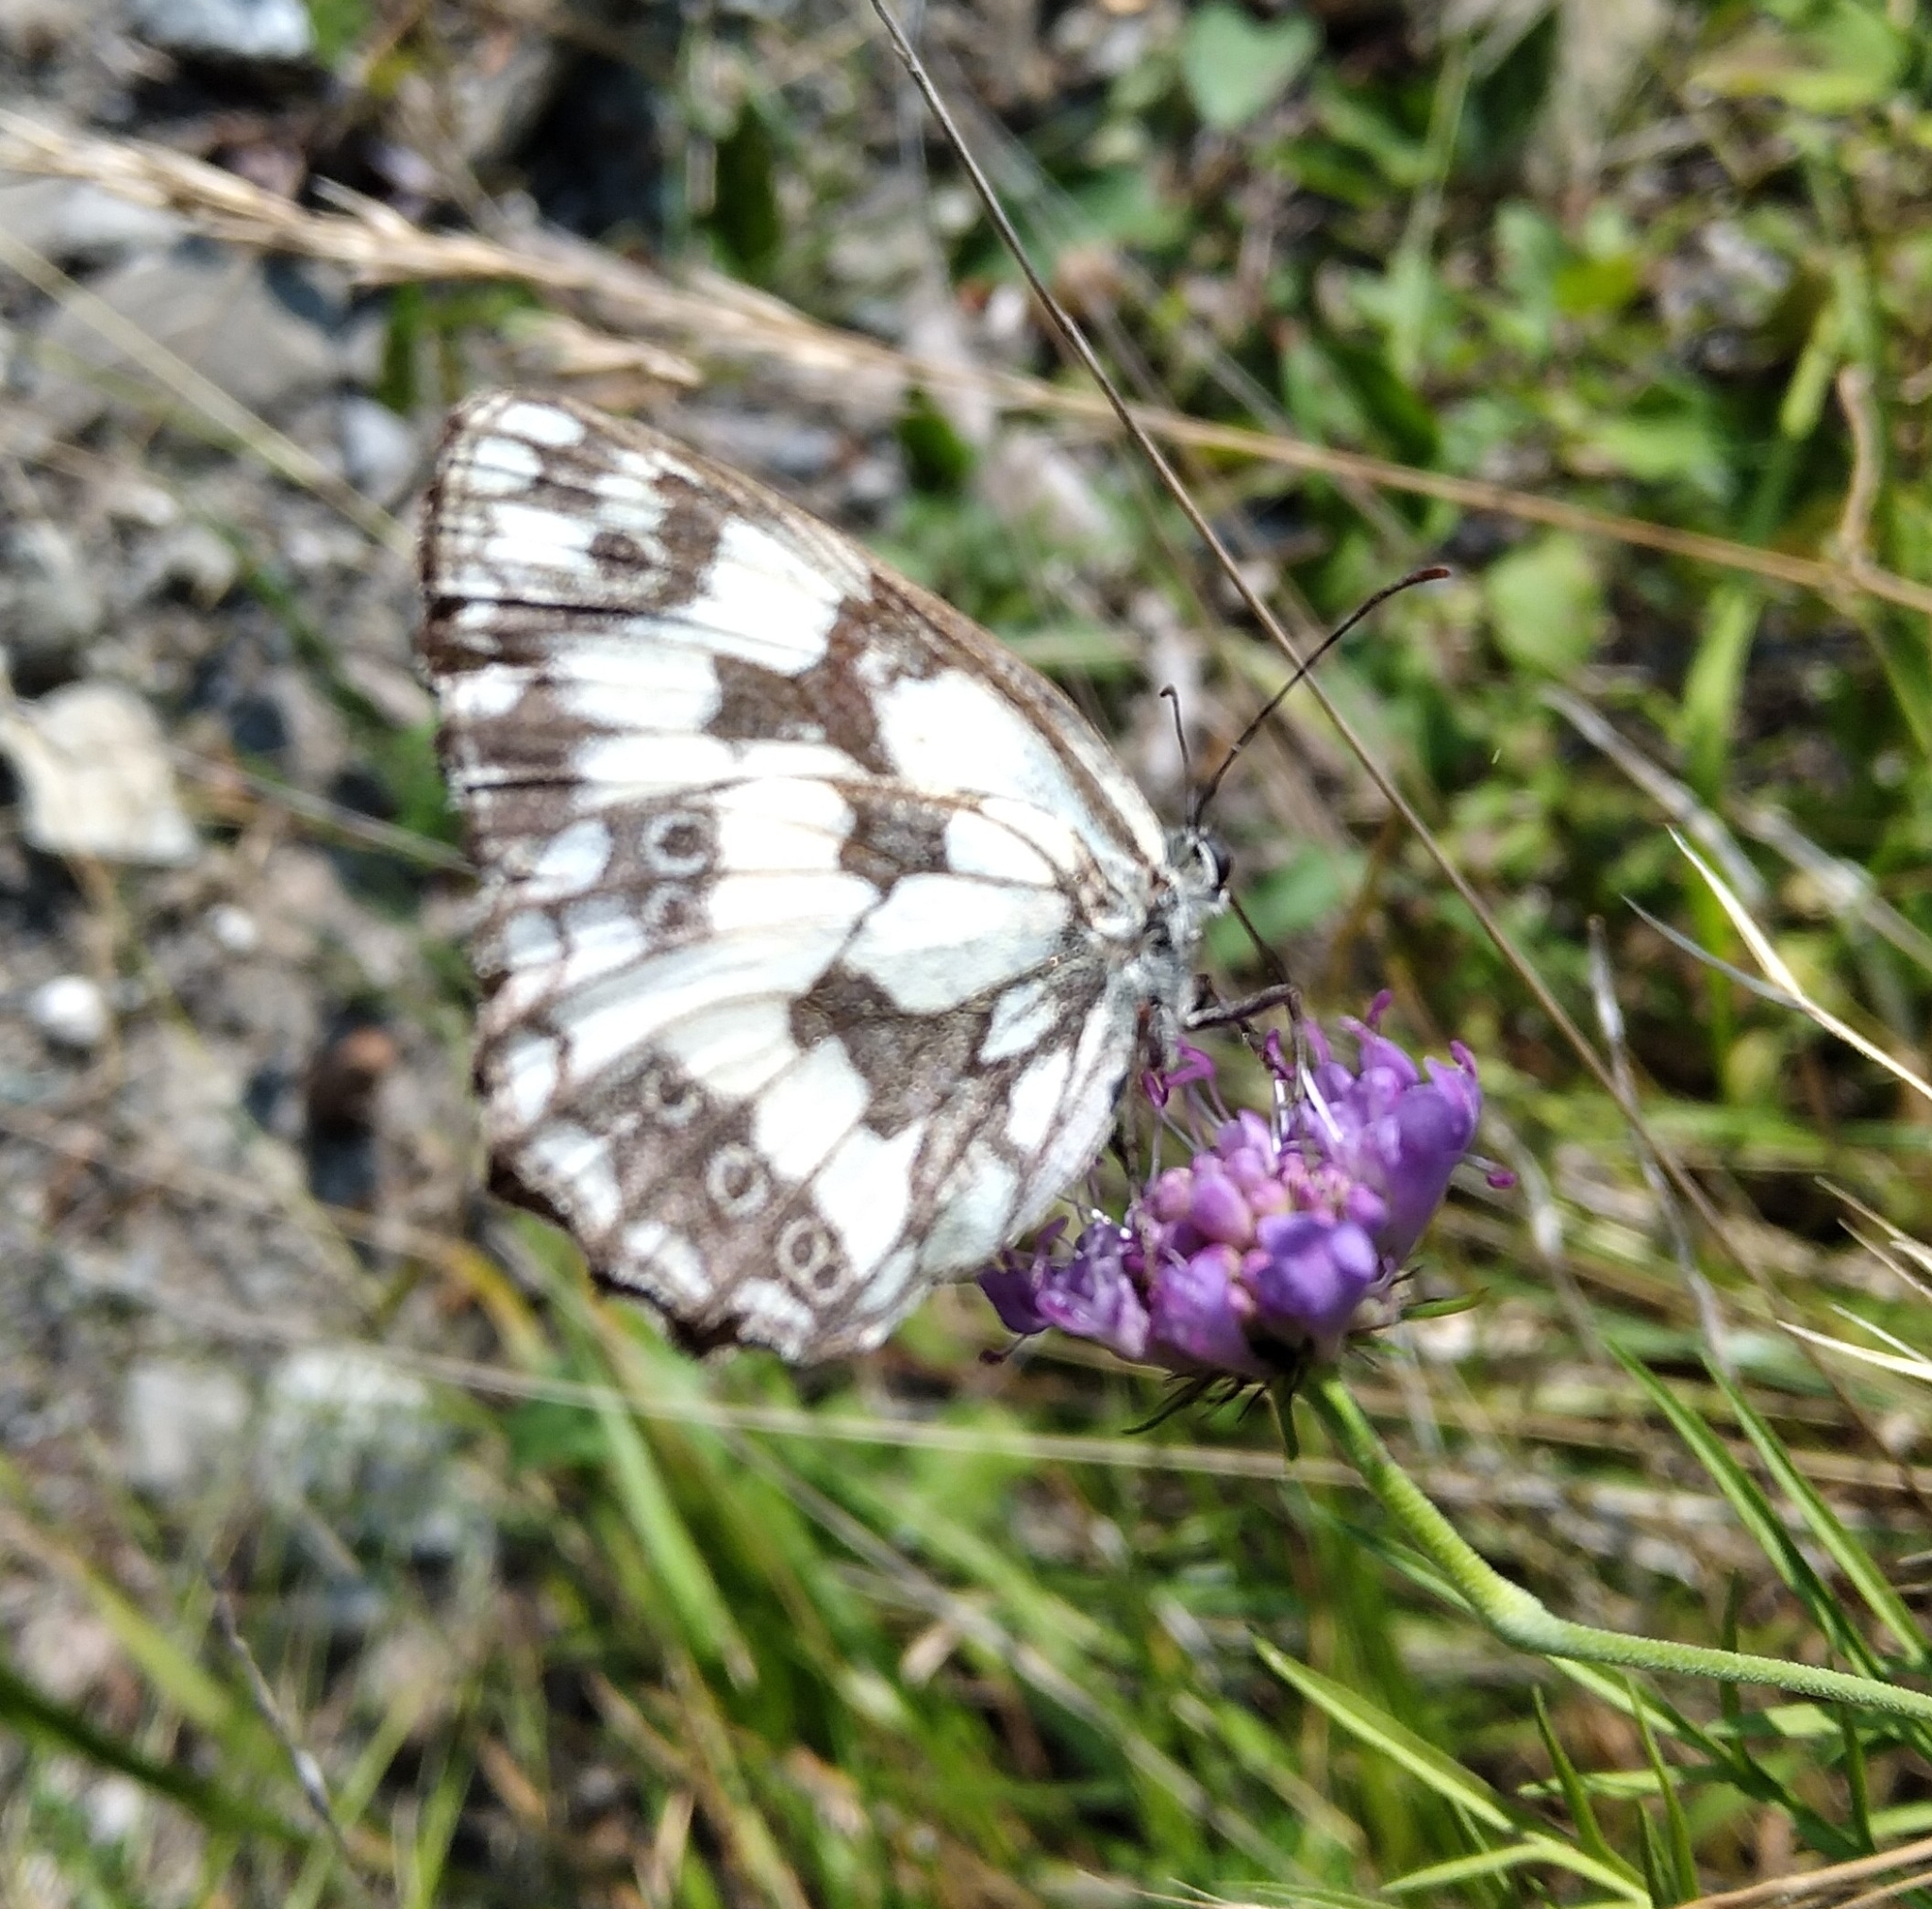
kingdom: Animalia
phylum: Arthropoda
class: Insecta
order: Lepidoptera
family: Nymphalidae
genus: Melanargia
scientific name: Melanargia galathea
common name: Marbled white
